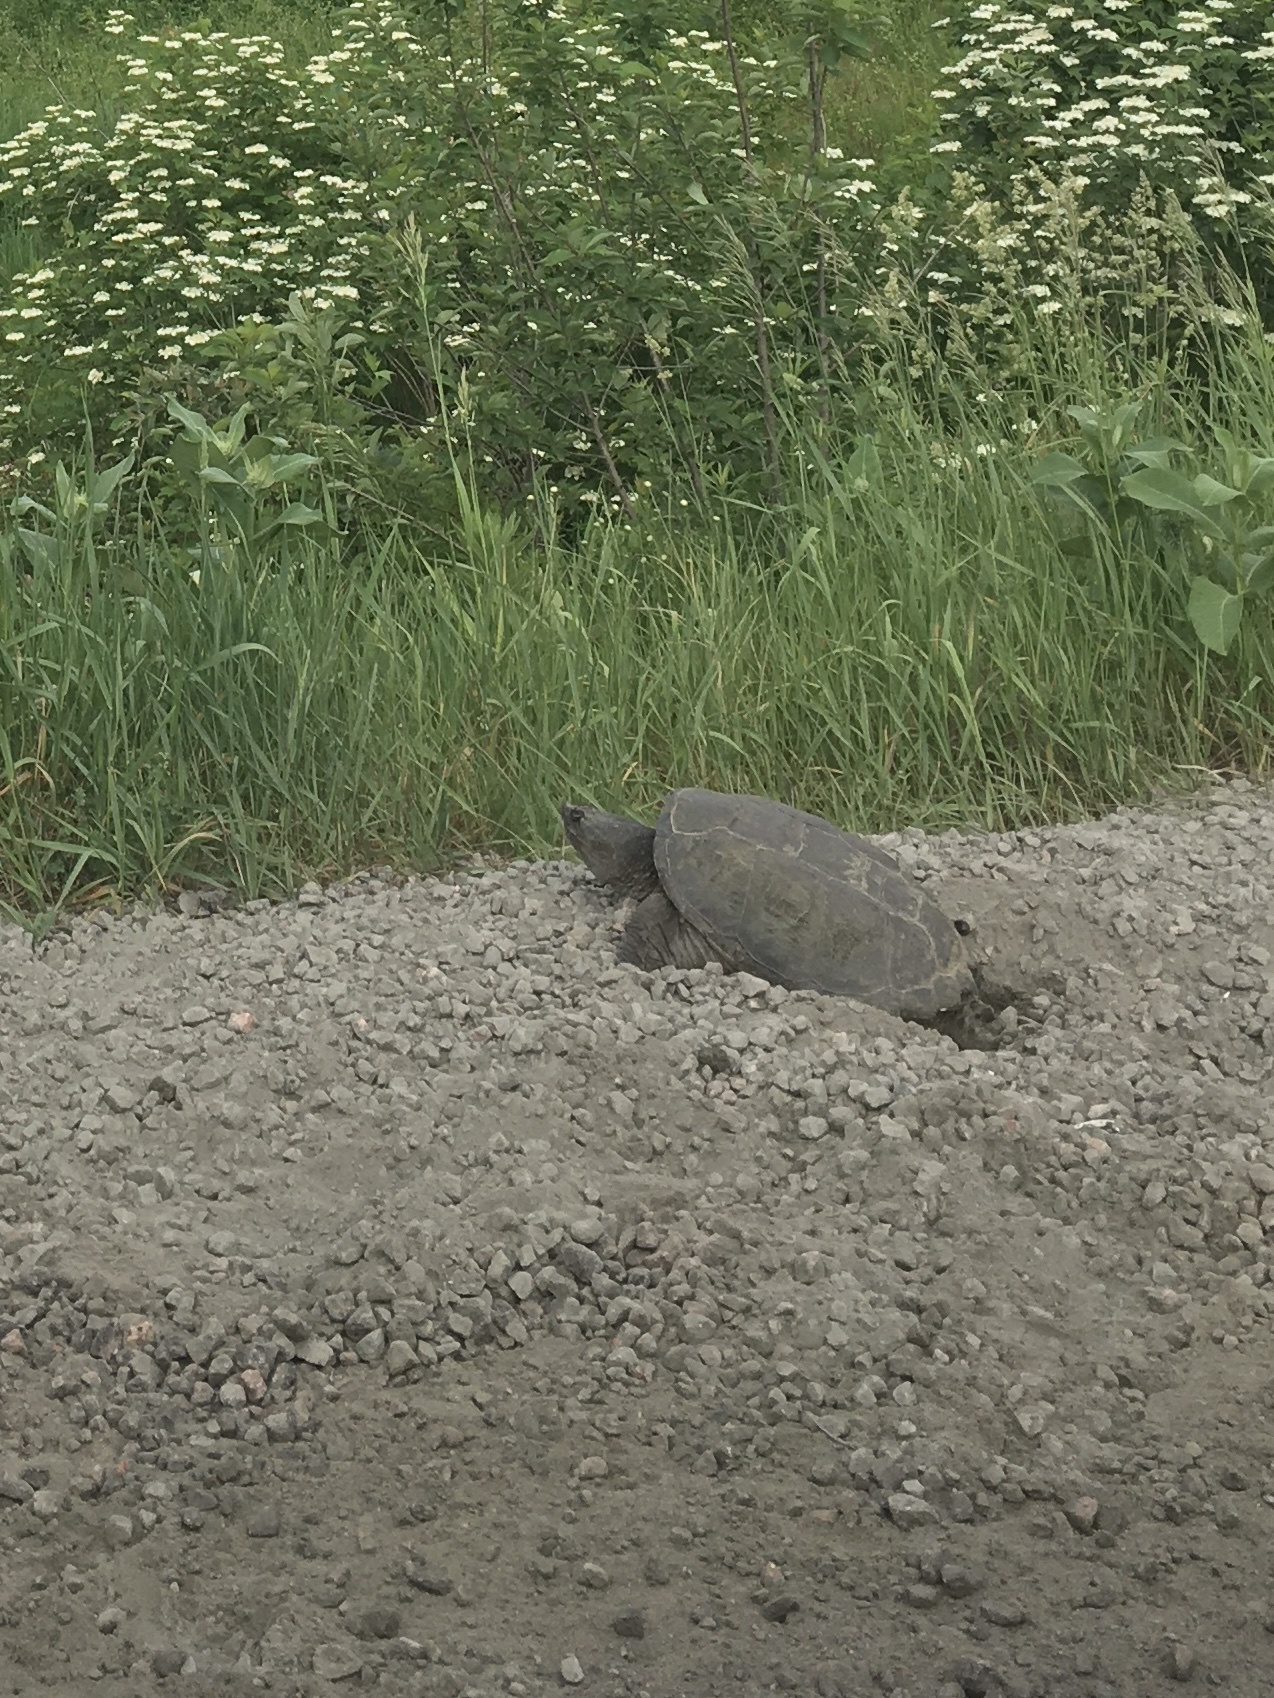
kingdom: Animalia
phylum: Chordata
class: Testudines
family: Chelydridae
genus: Chelydra
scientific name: Chelydra serpentina
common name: Common snapping turtle
